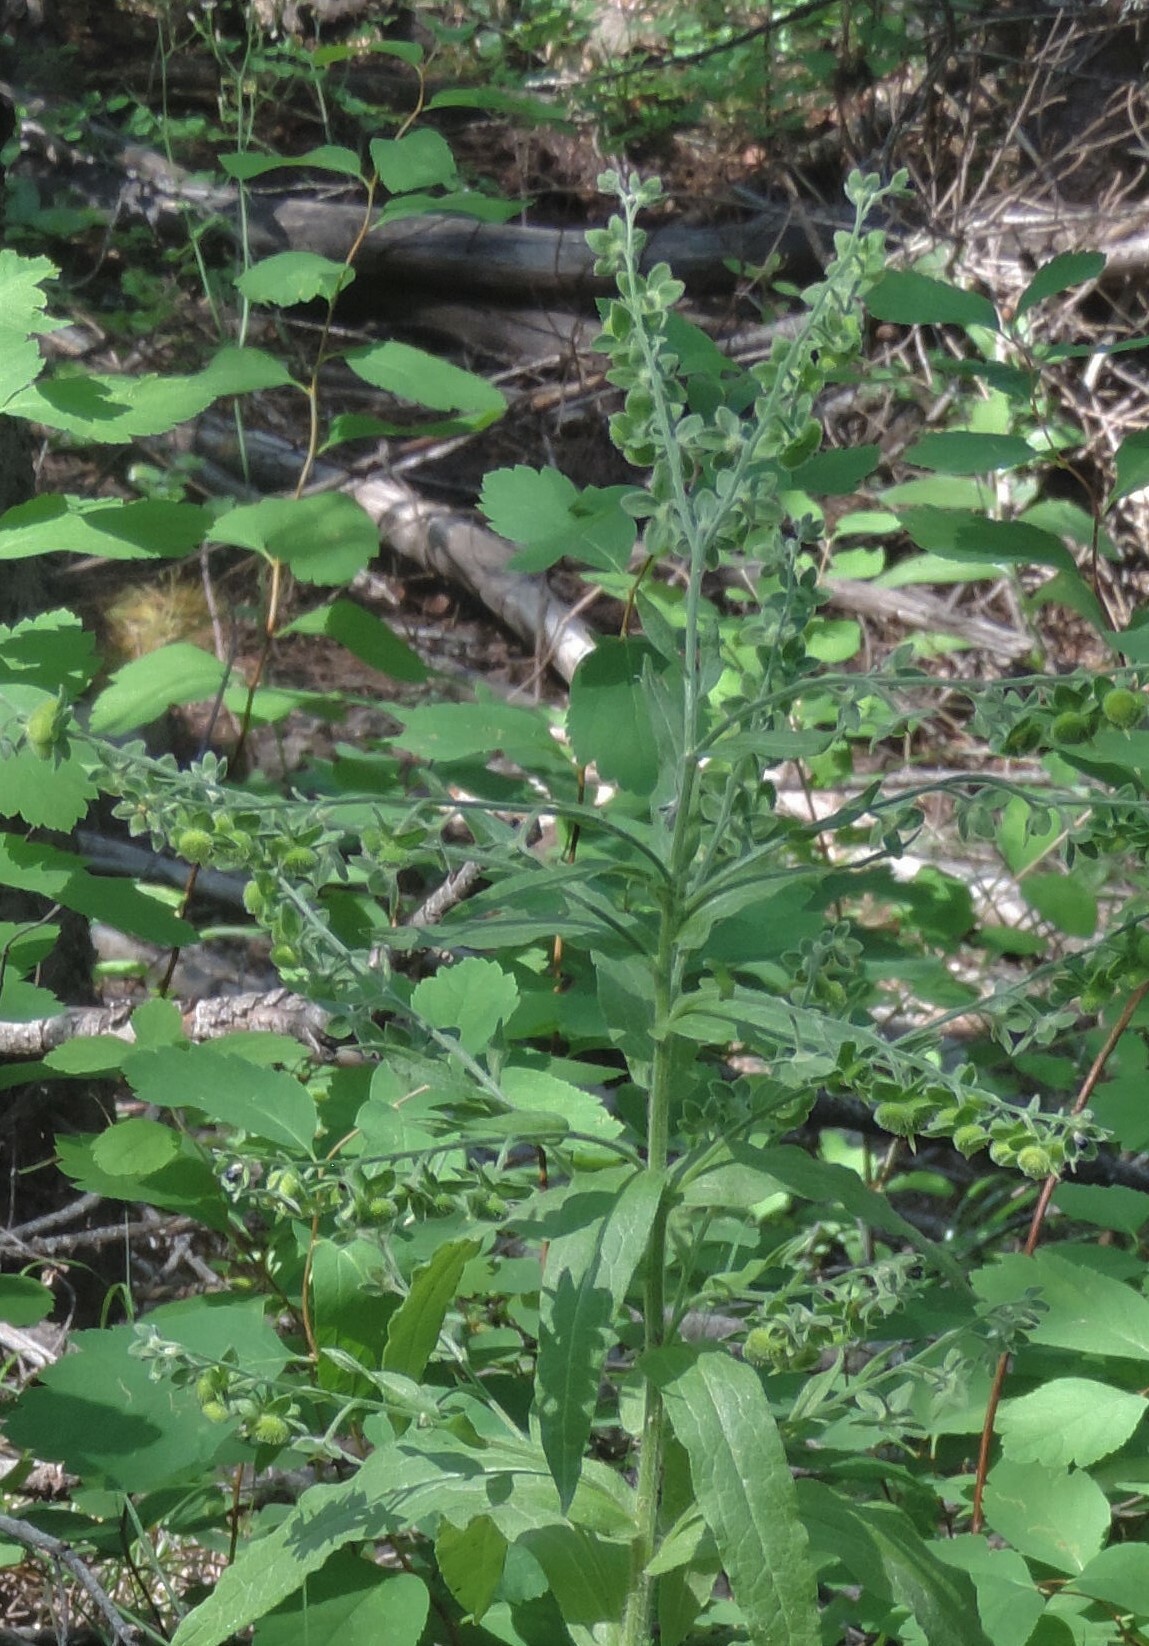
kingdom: Plantae
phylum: Tracheophyta
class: Magnoliopsida
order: Boraginales
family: Boraginaceae
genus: Cynoglossum
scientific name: Cynoglossum officinale
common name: Hound's-tongue
